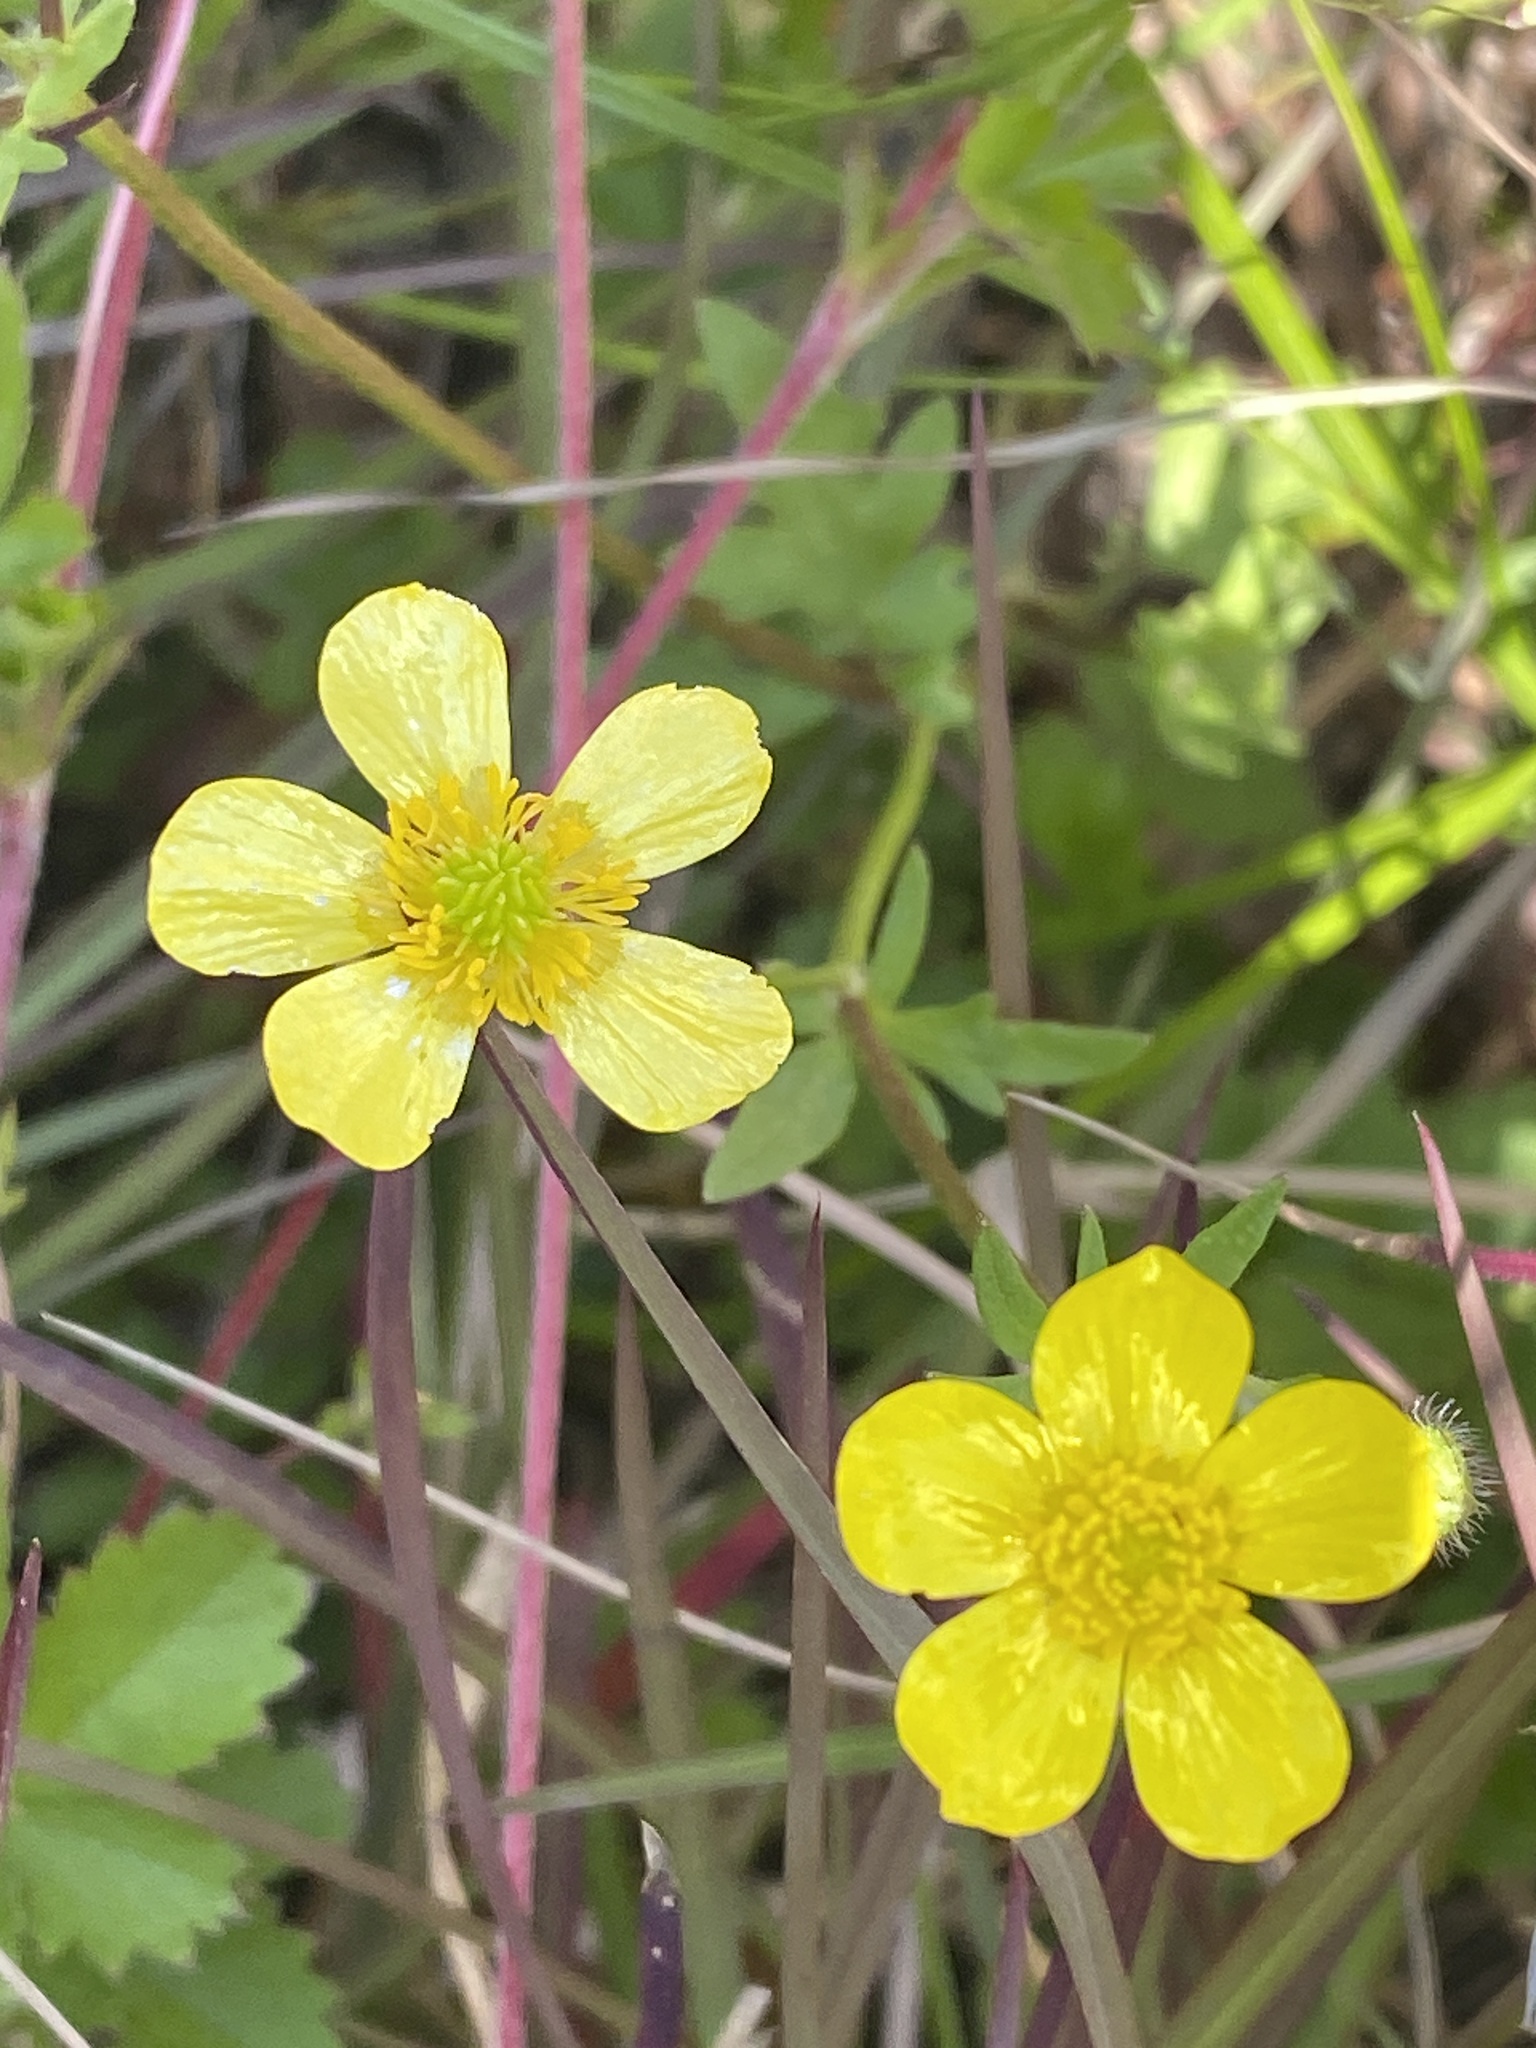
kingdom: Plantae
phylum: Tracheophyta
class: Magnoliopsida
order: Ranunculales
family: Ranunculaceae
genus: Ranunculus
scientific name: Ranunculus sardous
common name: Hairy buttercup
